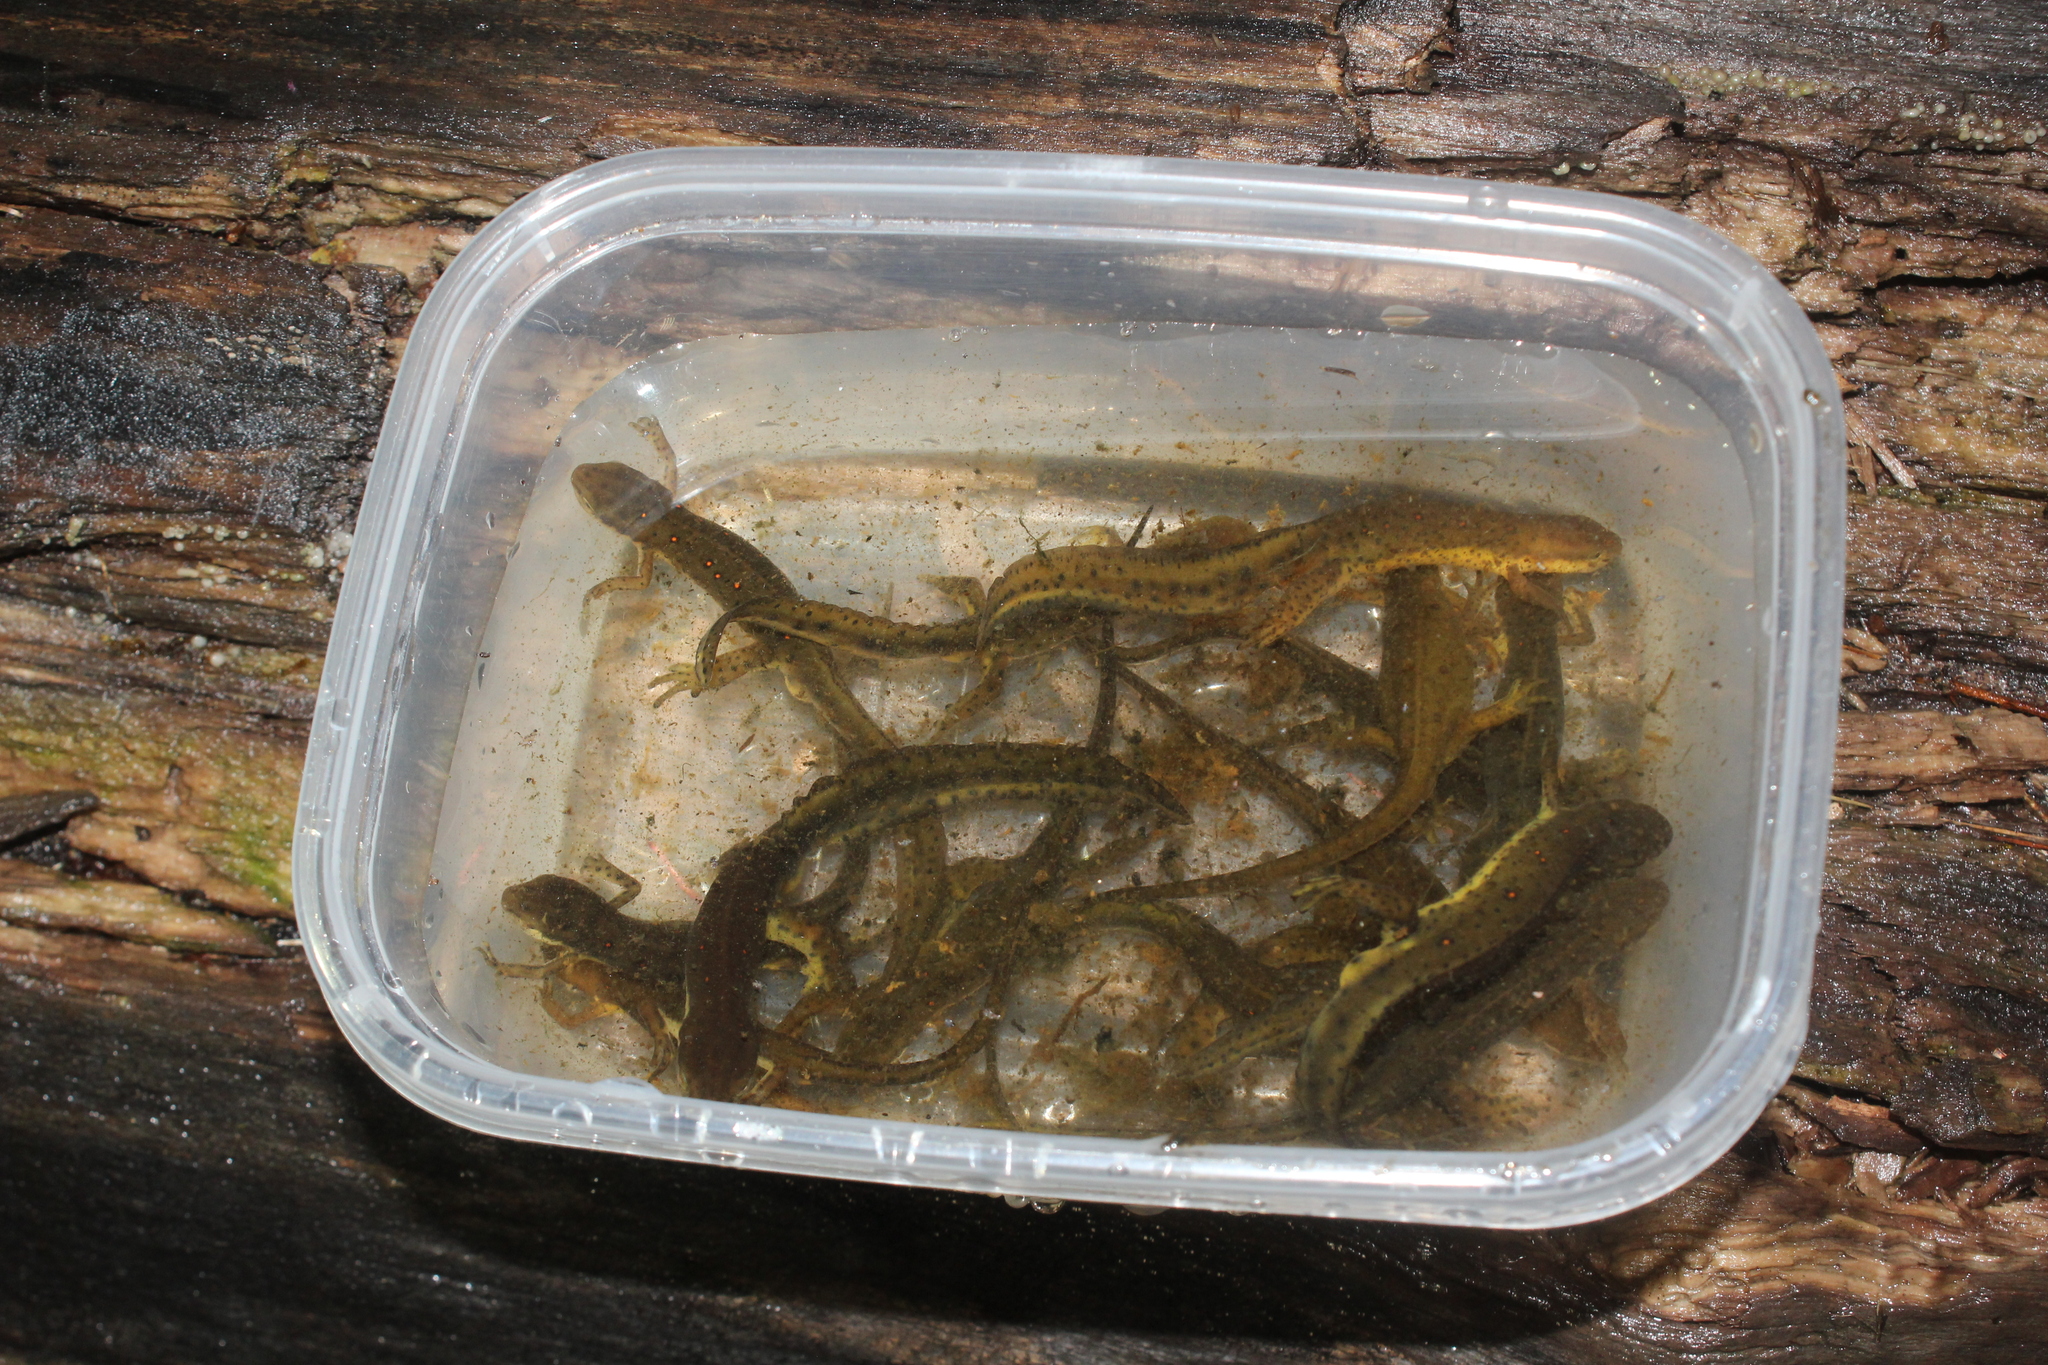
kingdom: Animalia
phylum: Chordata
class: Amphibia
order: Caudata
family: Salamandridae
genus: Notophthalmus
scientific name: Notophthalmus viridescens
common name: Eastern newt
